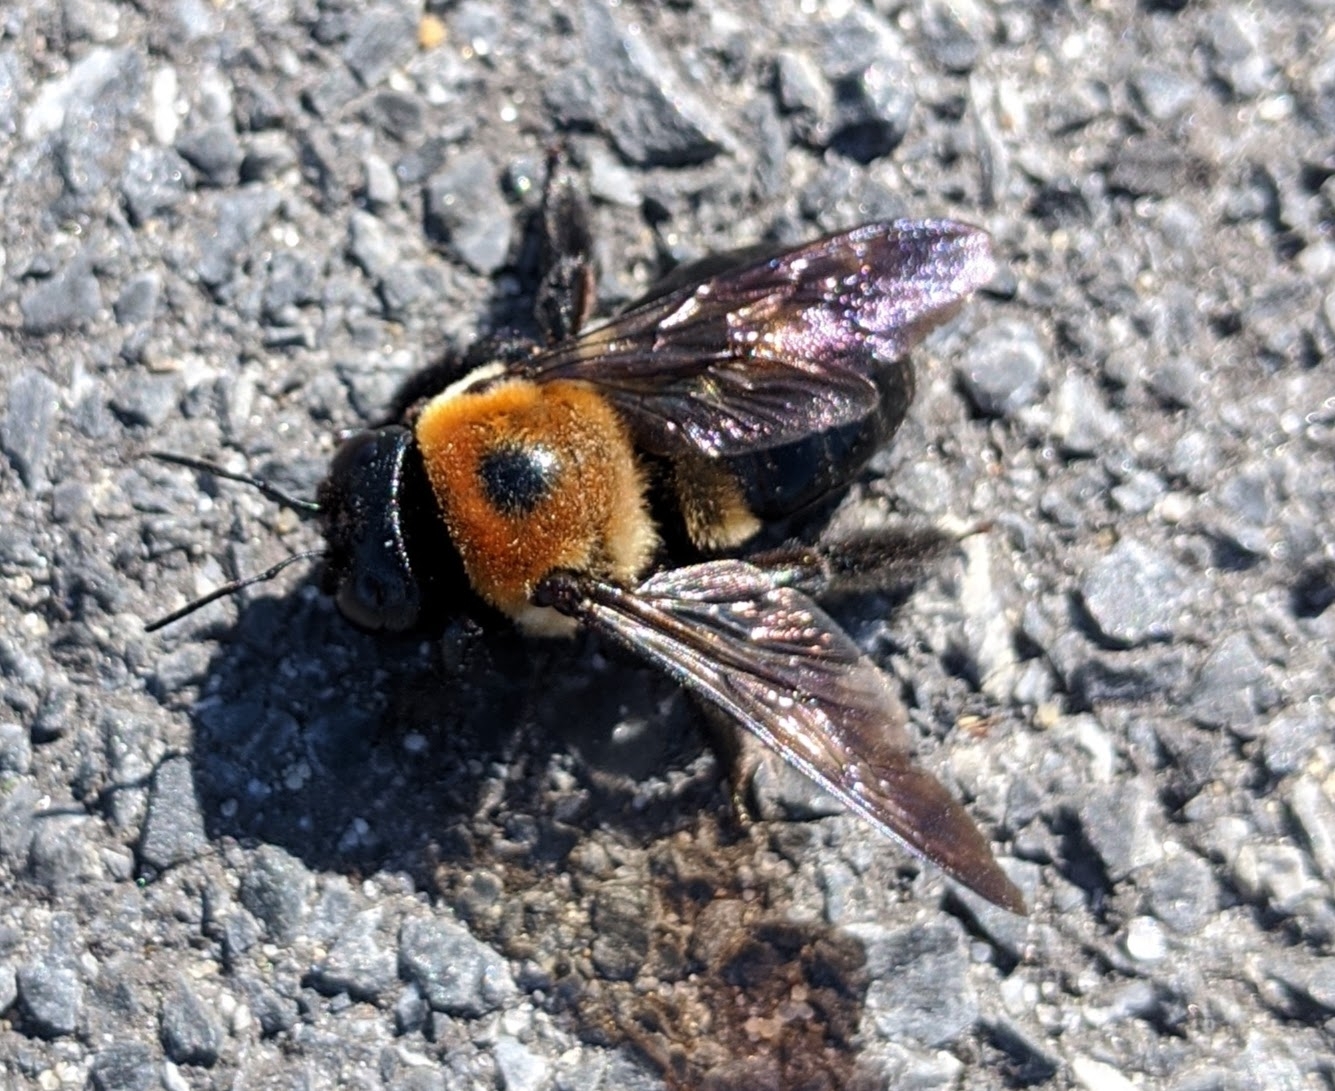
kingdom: Animalia
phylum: Arthropoda
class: Insecta
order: Hymenoptera
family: Apidae
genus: Xylocopa
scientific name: Xylocopa virginica
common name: Carpenter bee
